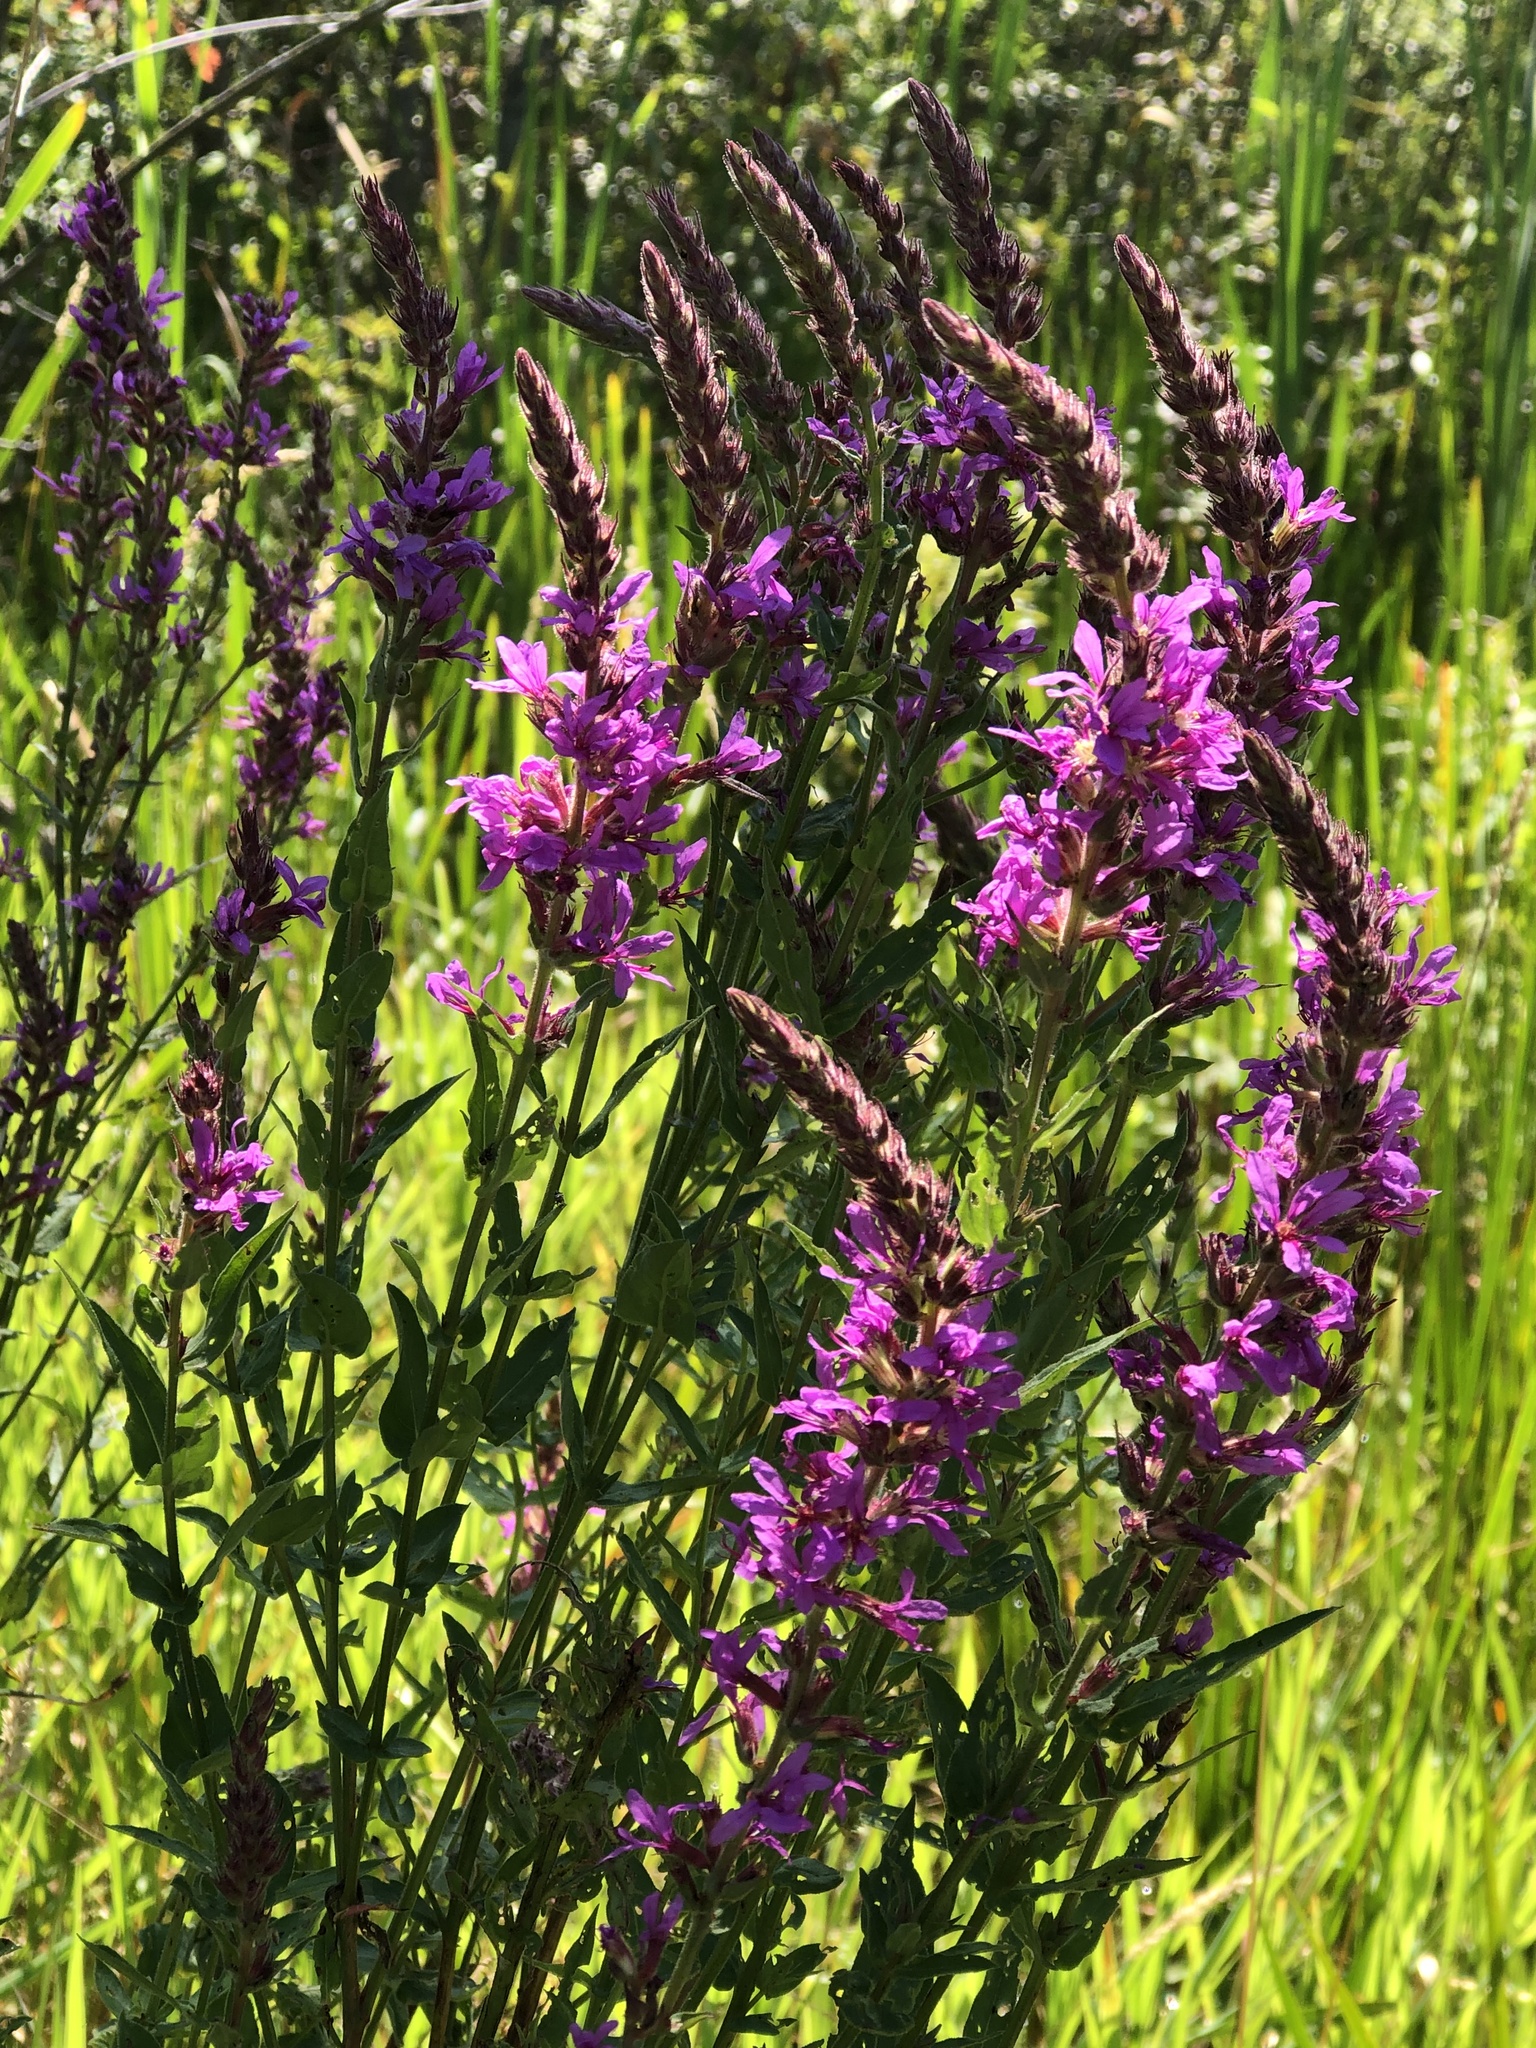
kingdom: Plantae
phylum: Tracheophyta
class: Magnoliopsida
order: Myrtales
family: Lythraceae
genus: Lythrum
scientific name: Lythrum salicaria
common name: Purple loosestrife
